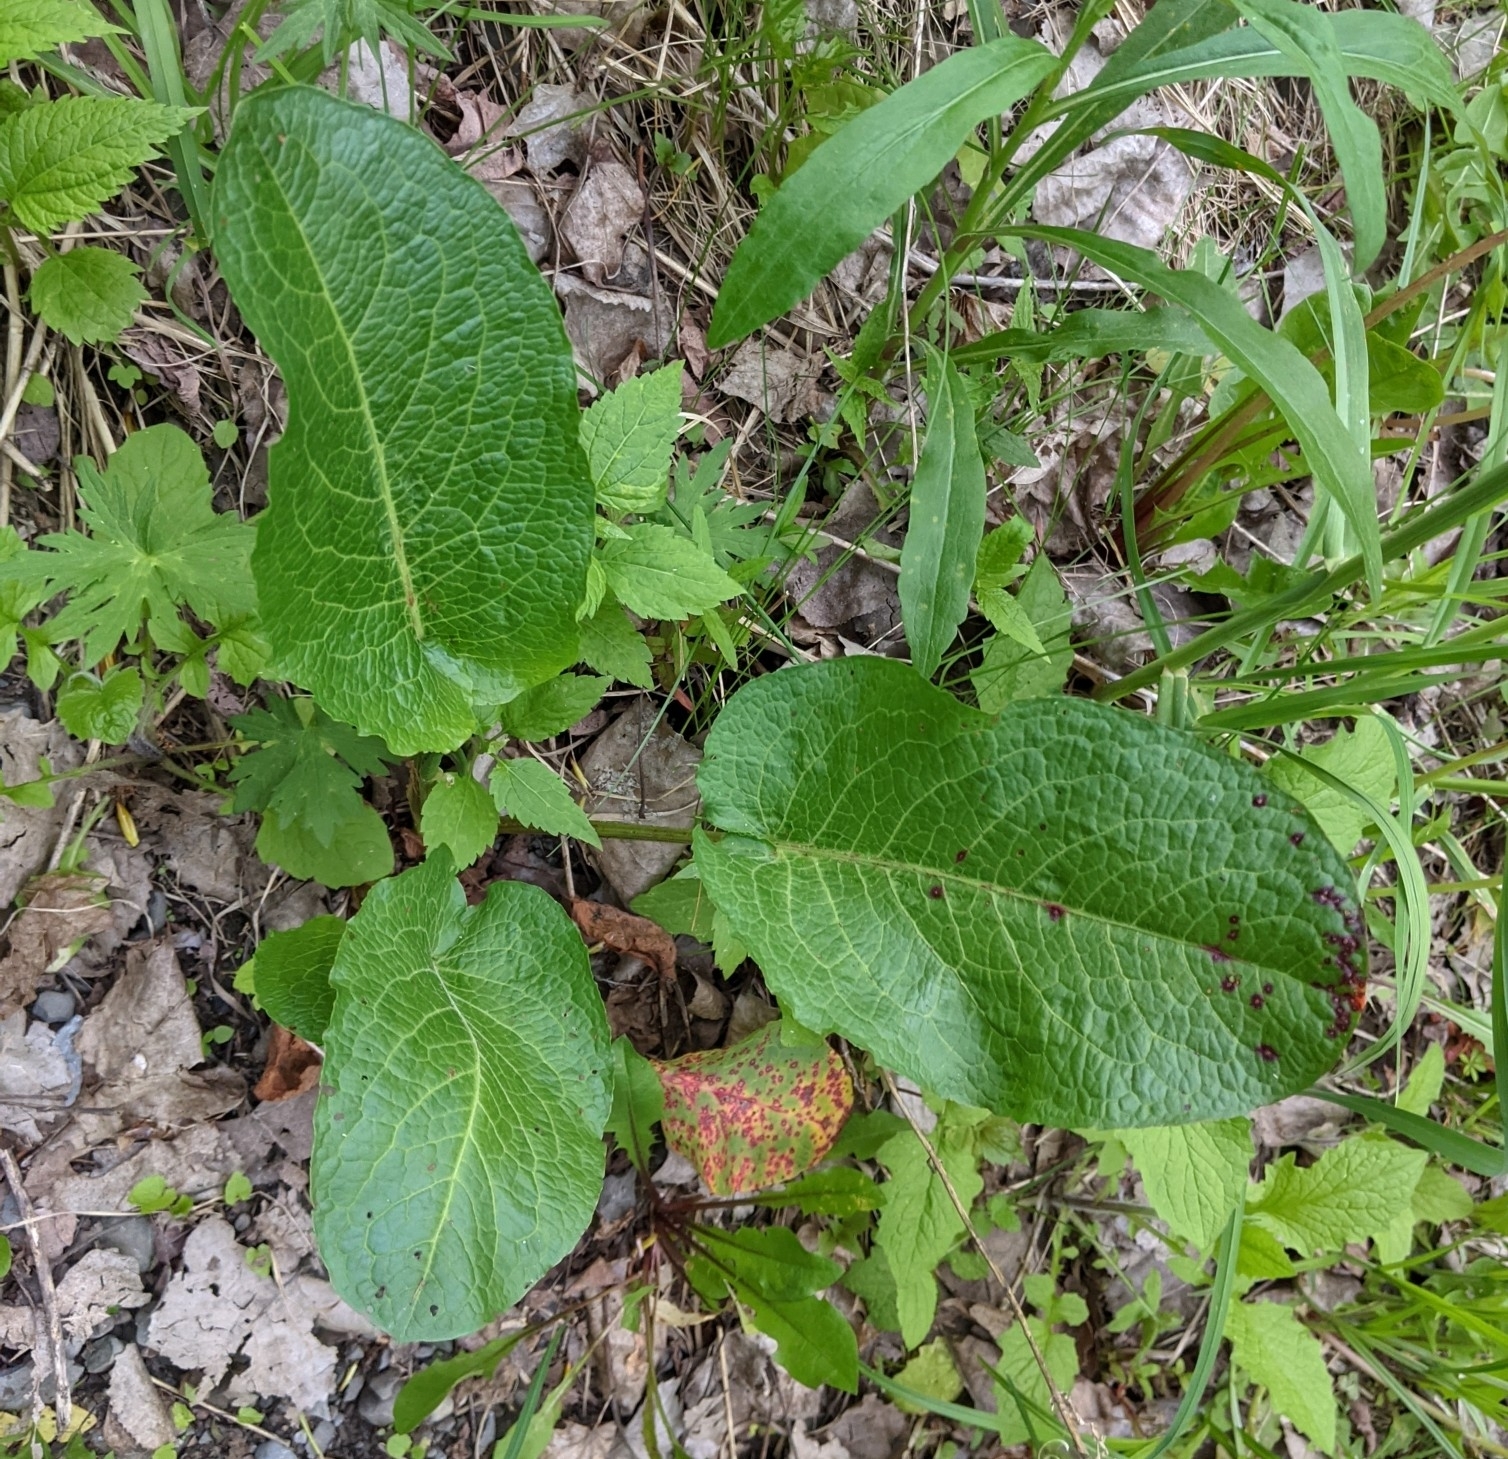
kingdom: Plantae
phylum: Tracheophyta
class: Magnoliopsida
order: Caryophyllales
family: Polygonaceae
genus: Rumex
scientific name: Rumex obtusifolius
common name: Bitter dock
